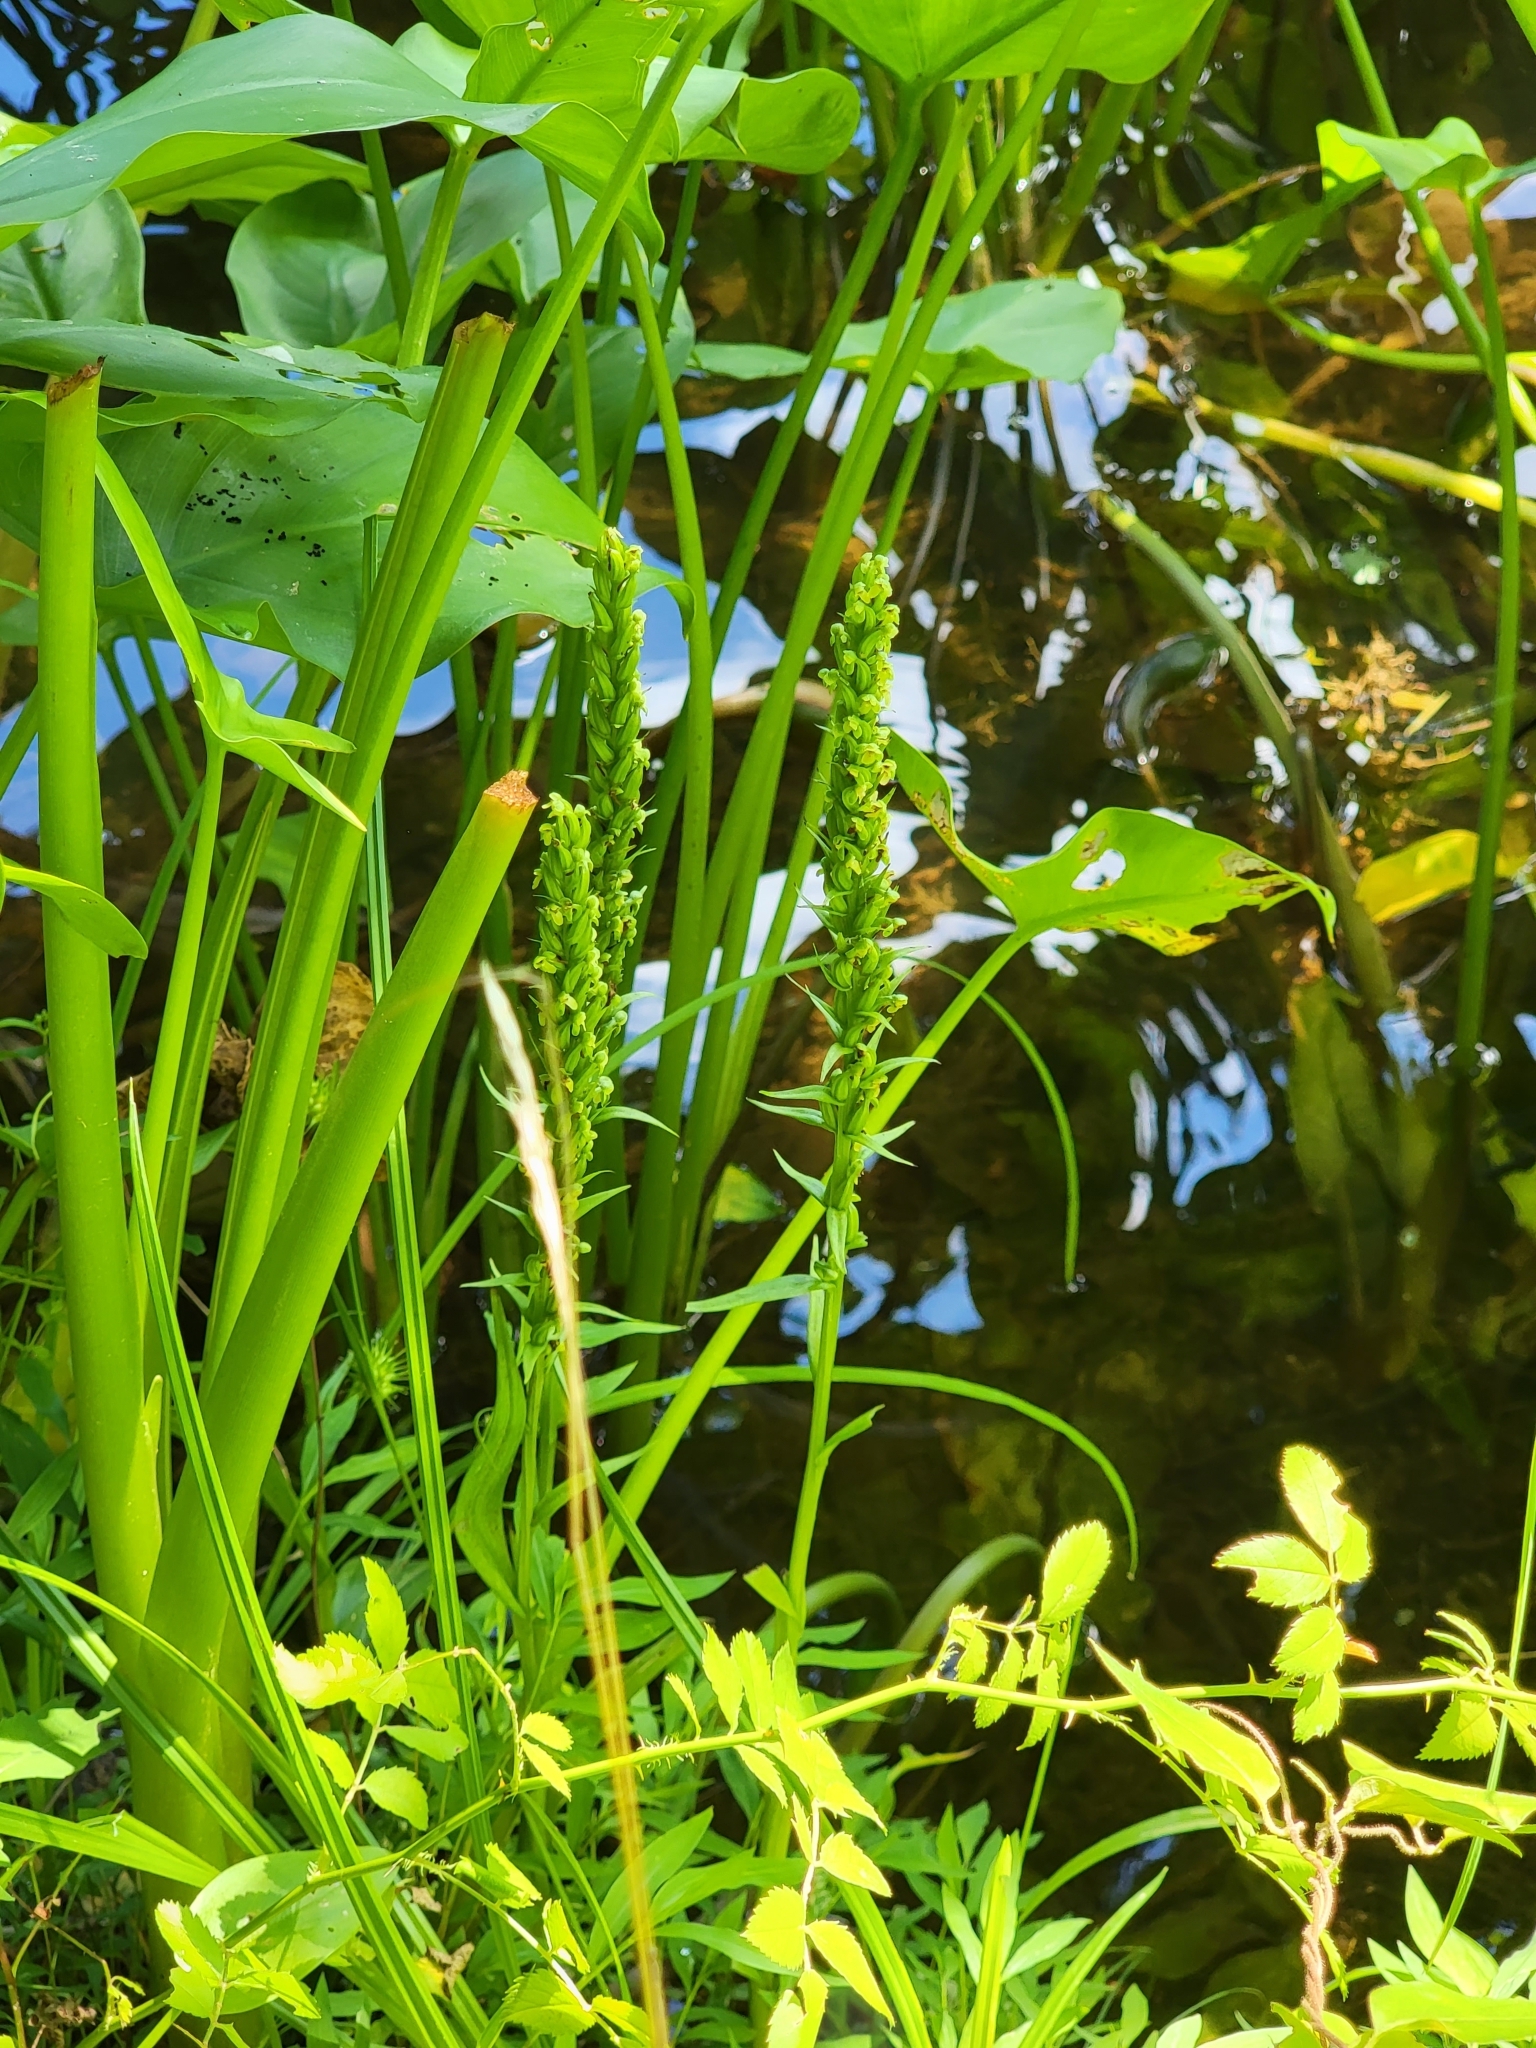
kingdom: Plantae
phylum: Tracheophyta
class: Liliopsida
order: Asparagales
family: Orchidaceae
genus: Platanthera
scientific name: Platanthera flava
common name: Gypsy-spikes
